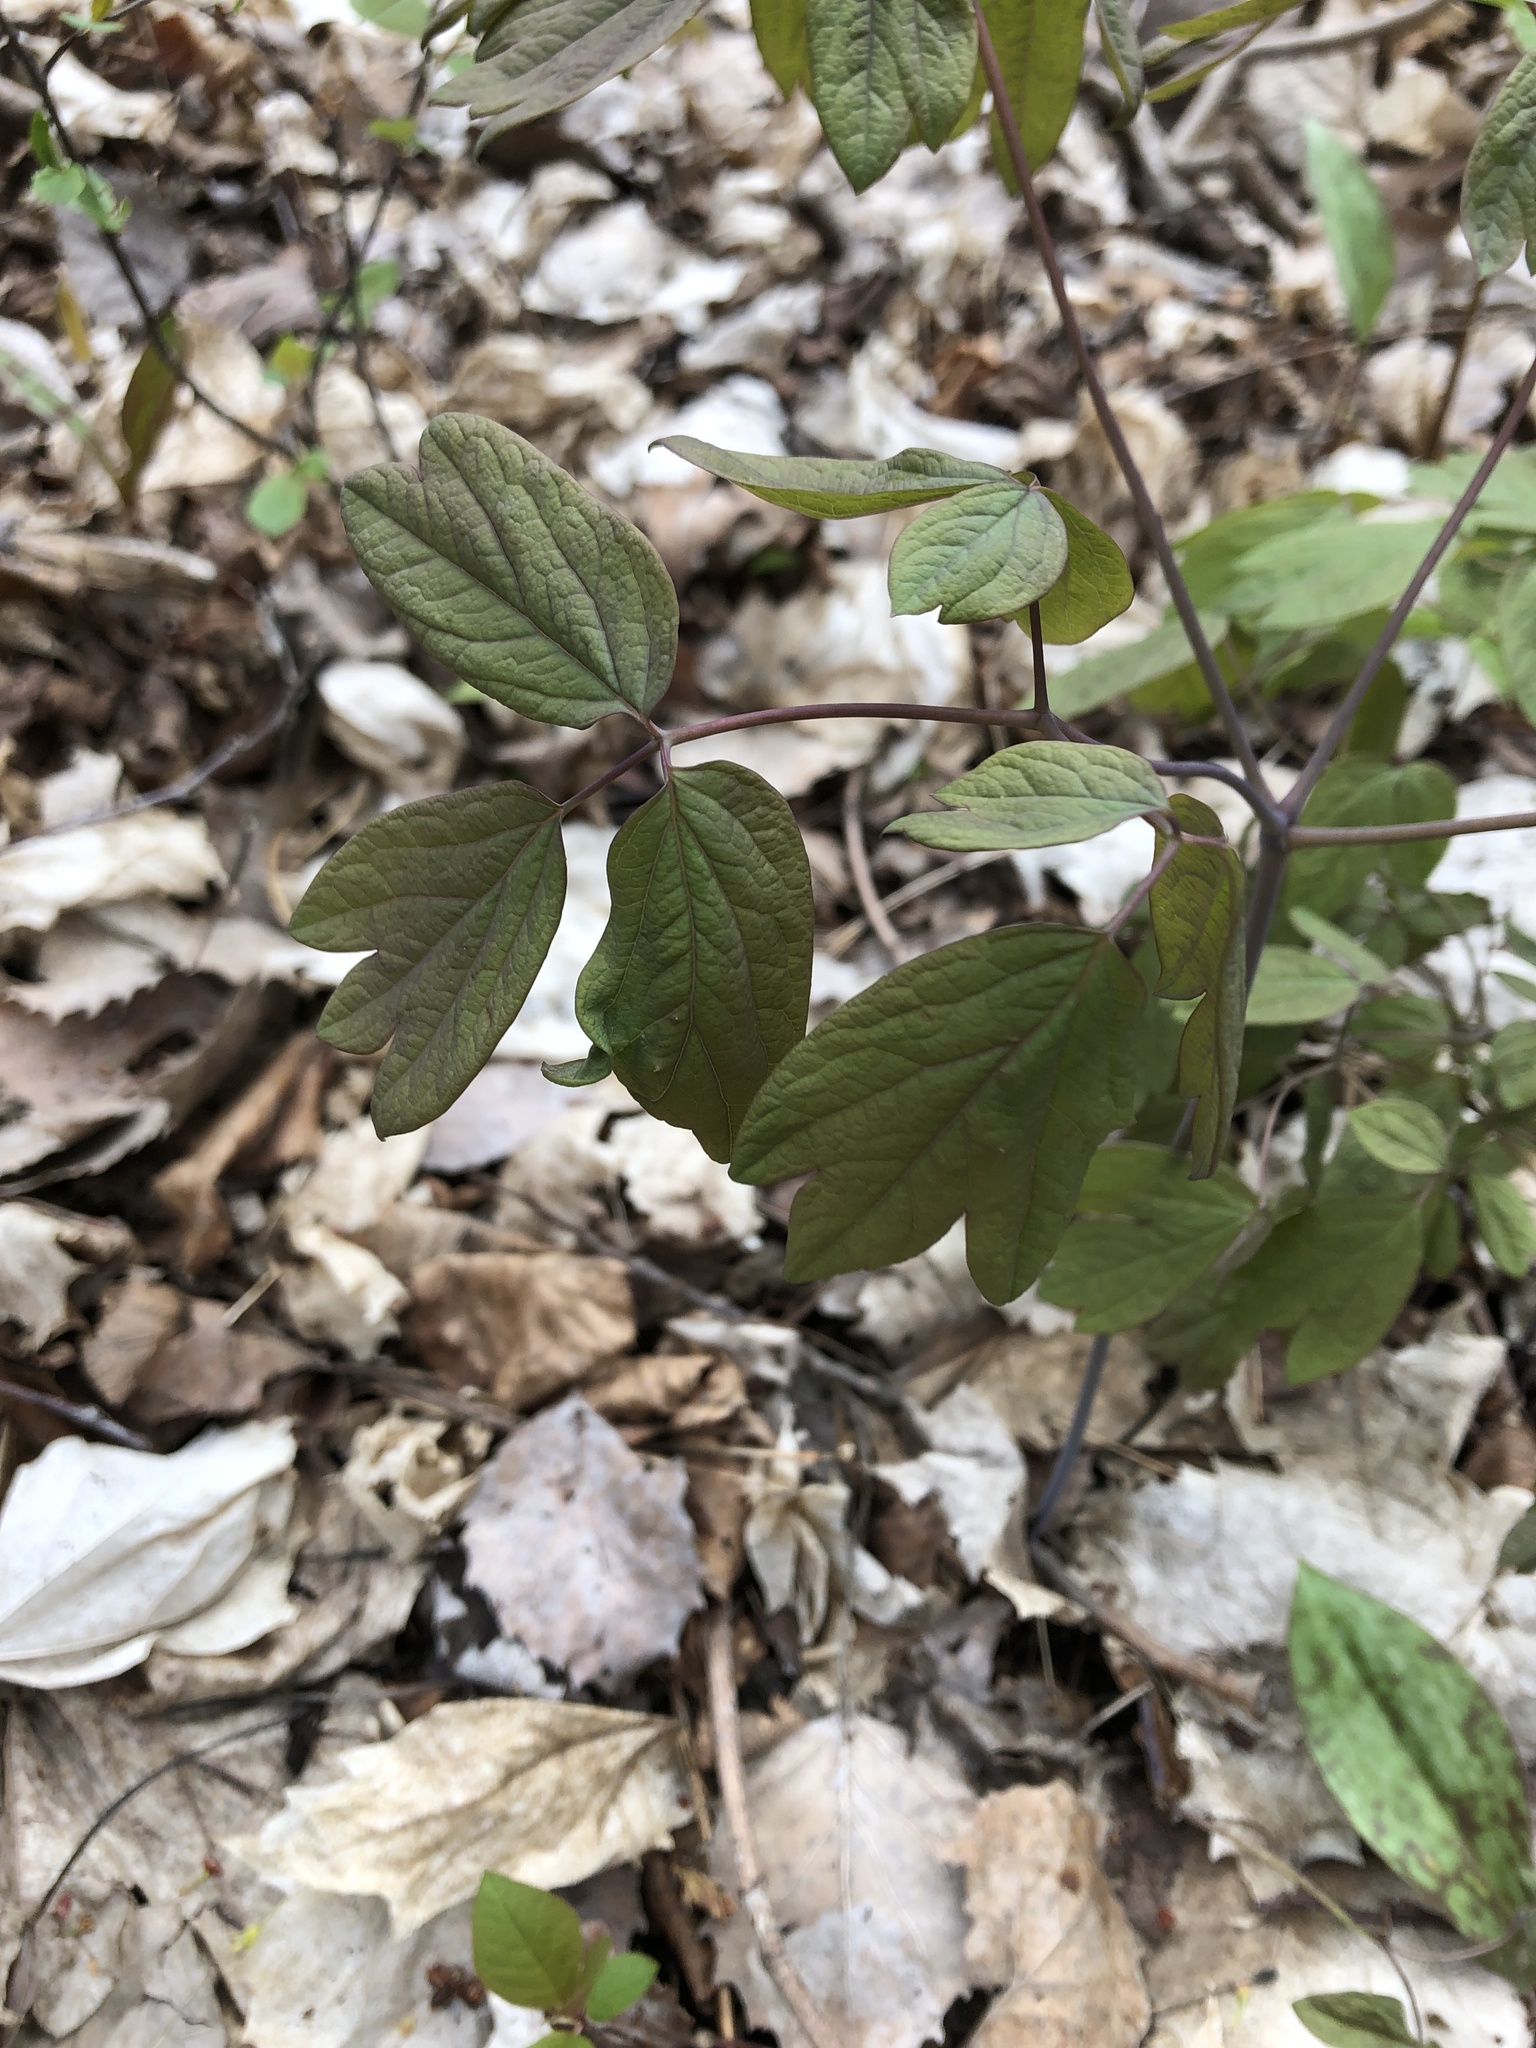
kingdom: Plantae
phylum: Tracheophyta
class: Magnoliopsida
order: Ranunculales
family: Berberidaceae
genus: Caulophyllum
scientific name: Caulophyllum giganteum
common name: Blue cohosh
